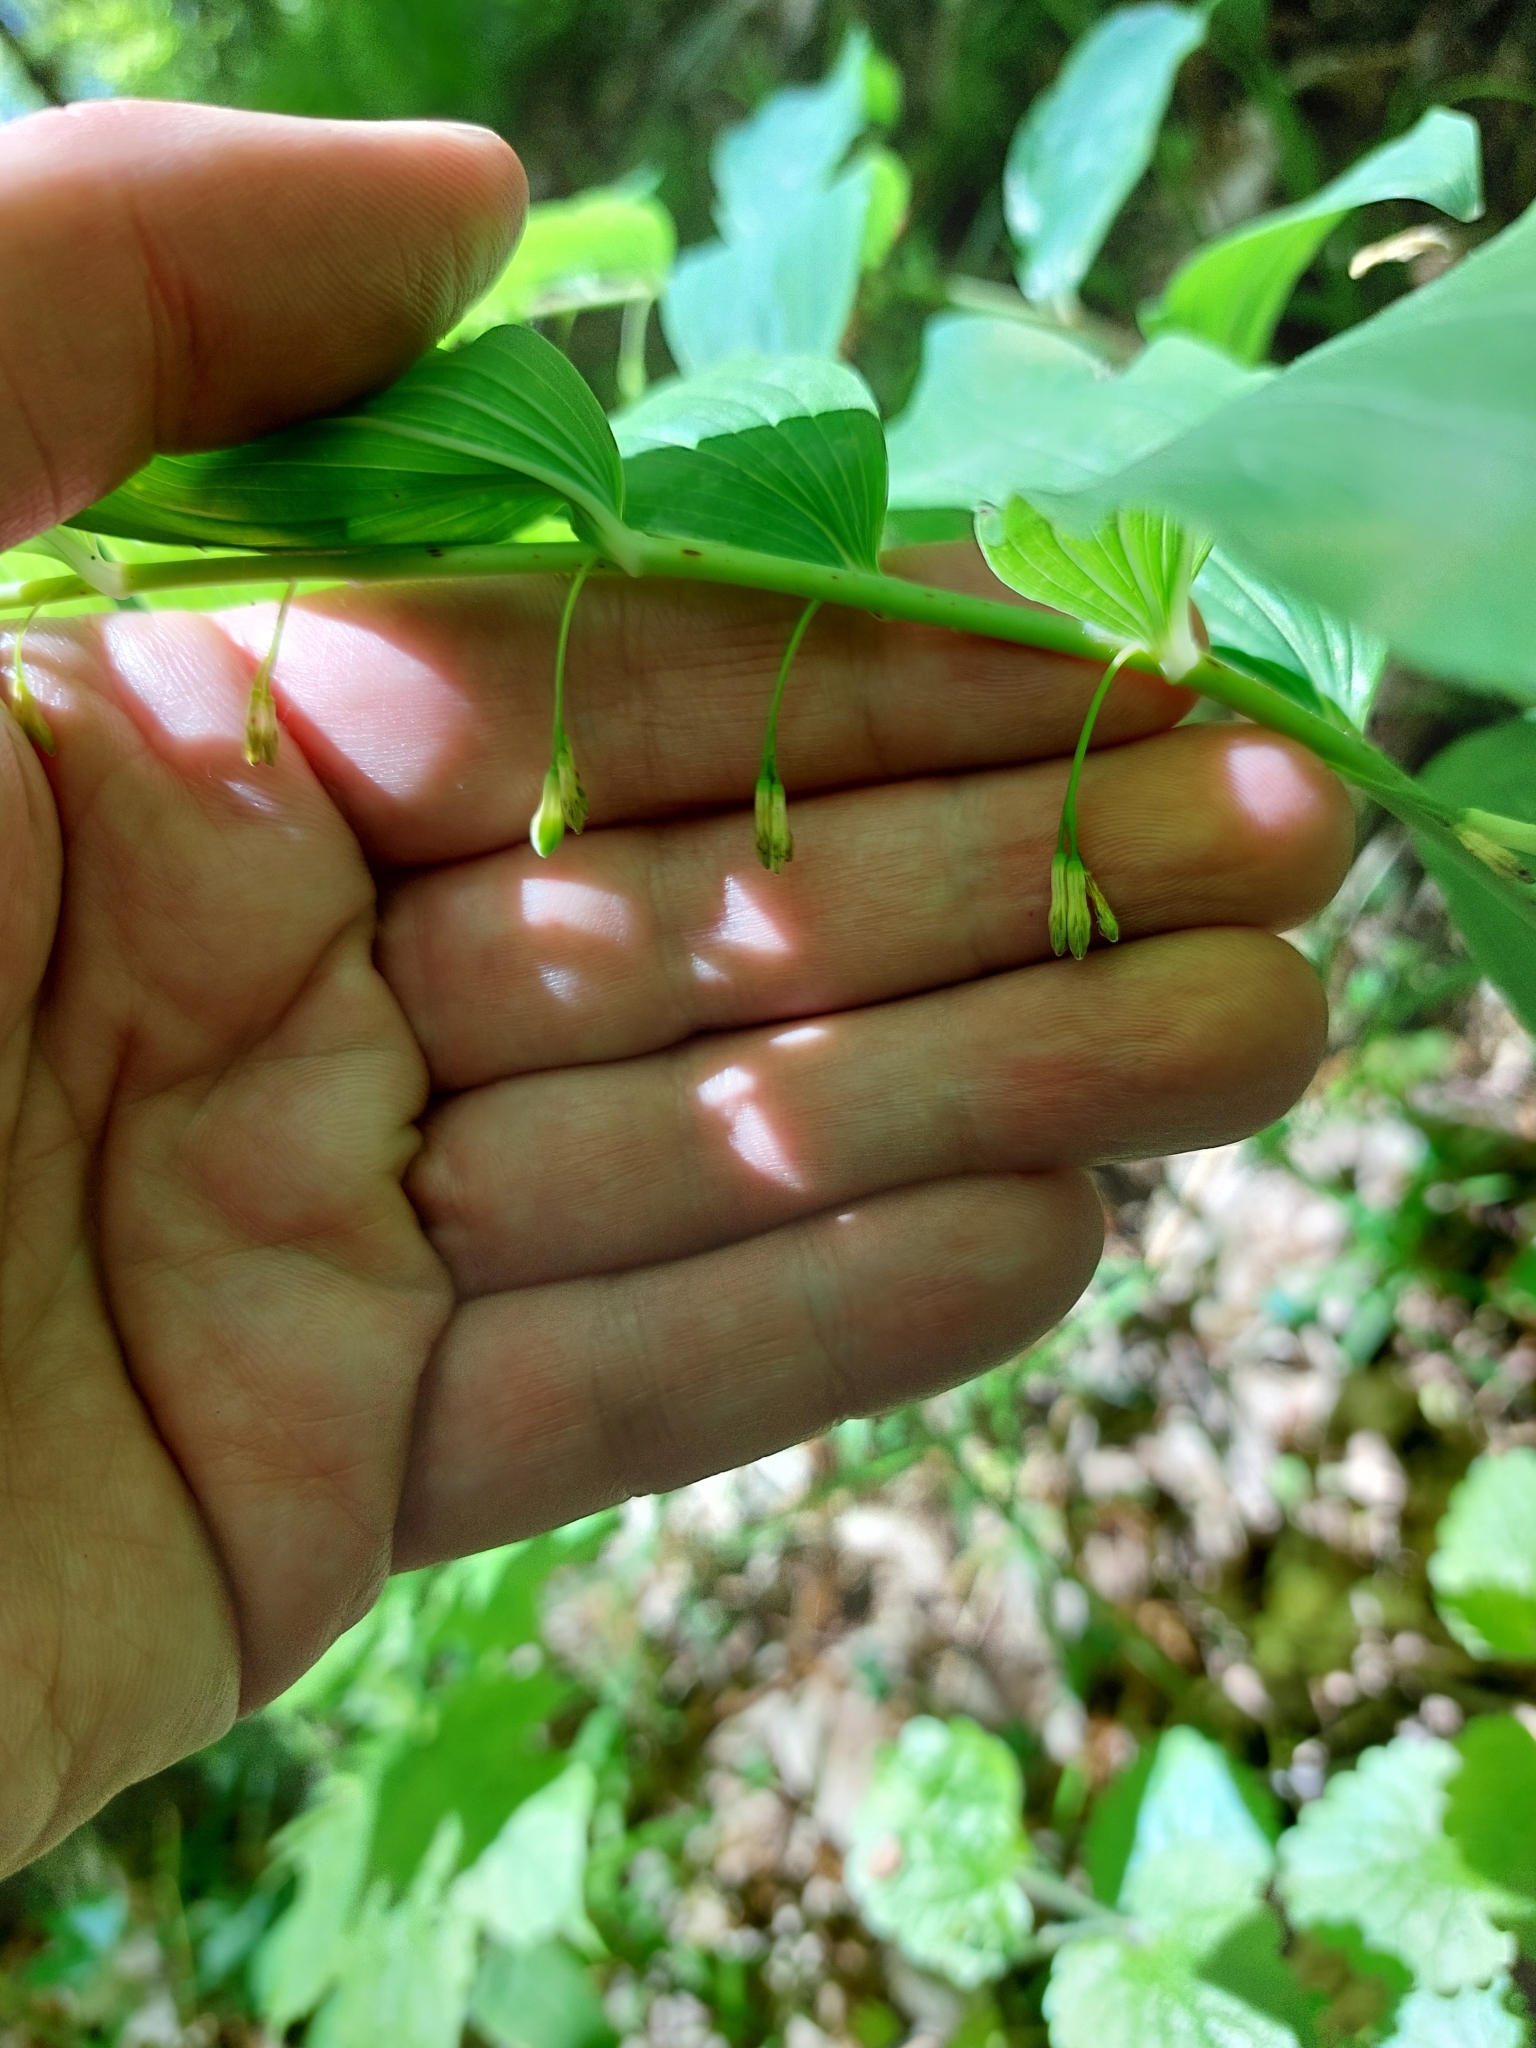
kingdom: Plantae
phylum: Tracheophyta
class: Liliopsida
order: Asparagales
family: Asparagaceae
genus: Polygonatum
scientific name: Polygonatum multiflorum
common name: Solomon's-seal
